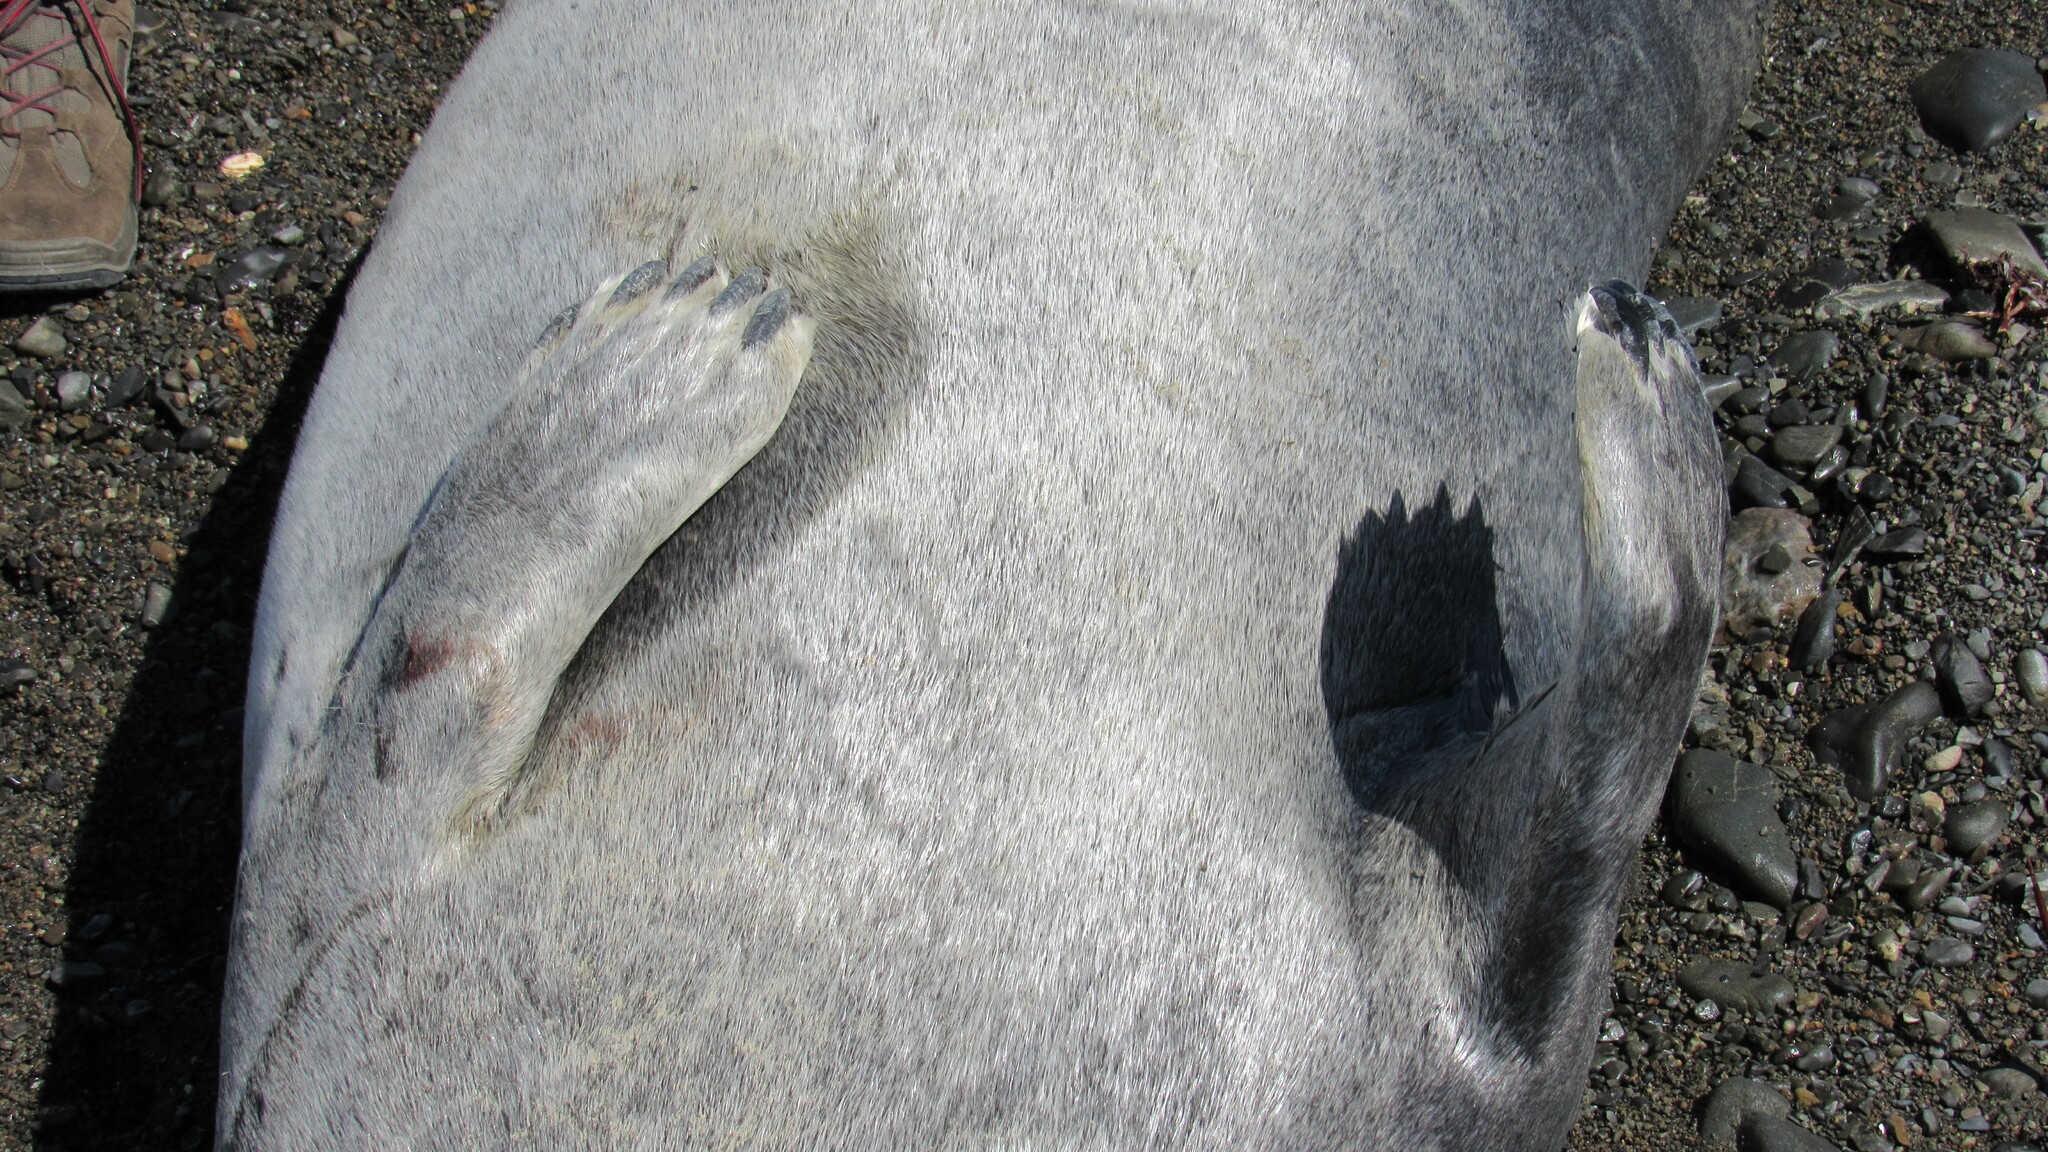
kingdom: Animalia
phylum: Chordata
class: Mammalia
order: Carnivora
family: Phocidae
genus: Erignathus
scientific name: Erignathus barbatus
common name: Bearded seal
